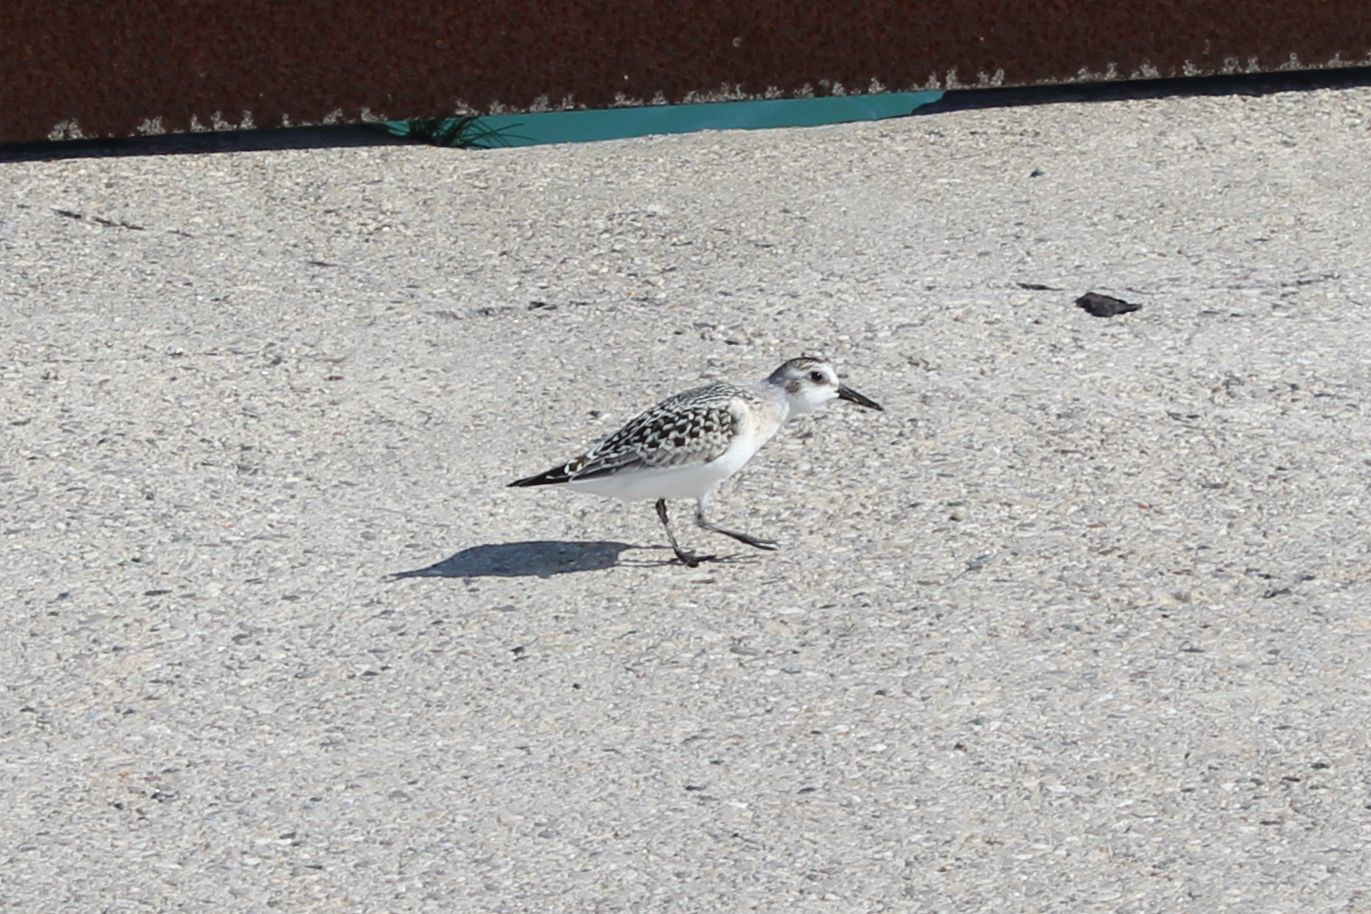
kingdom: Animalia
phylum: Chordata
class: Aves
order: Charadriiformes
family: Scolopacidae
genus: Calidris
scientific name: Calidris alba
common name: Sanderling
